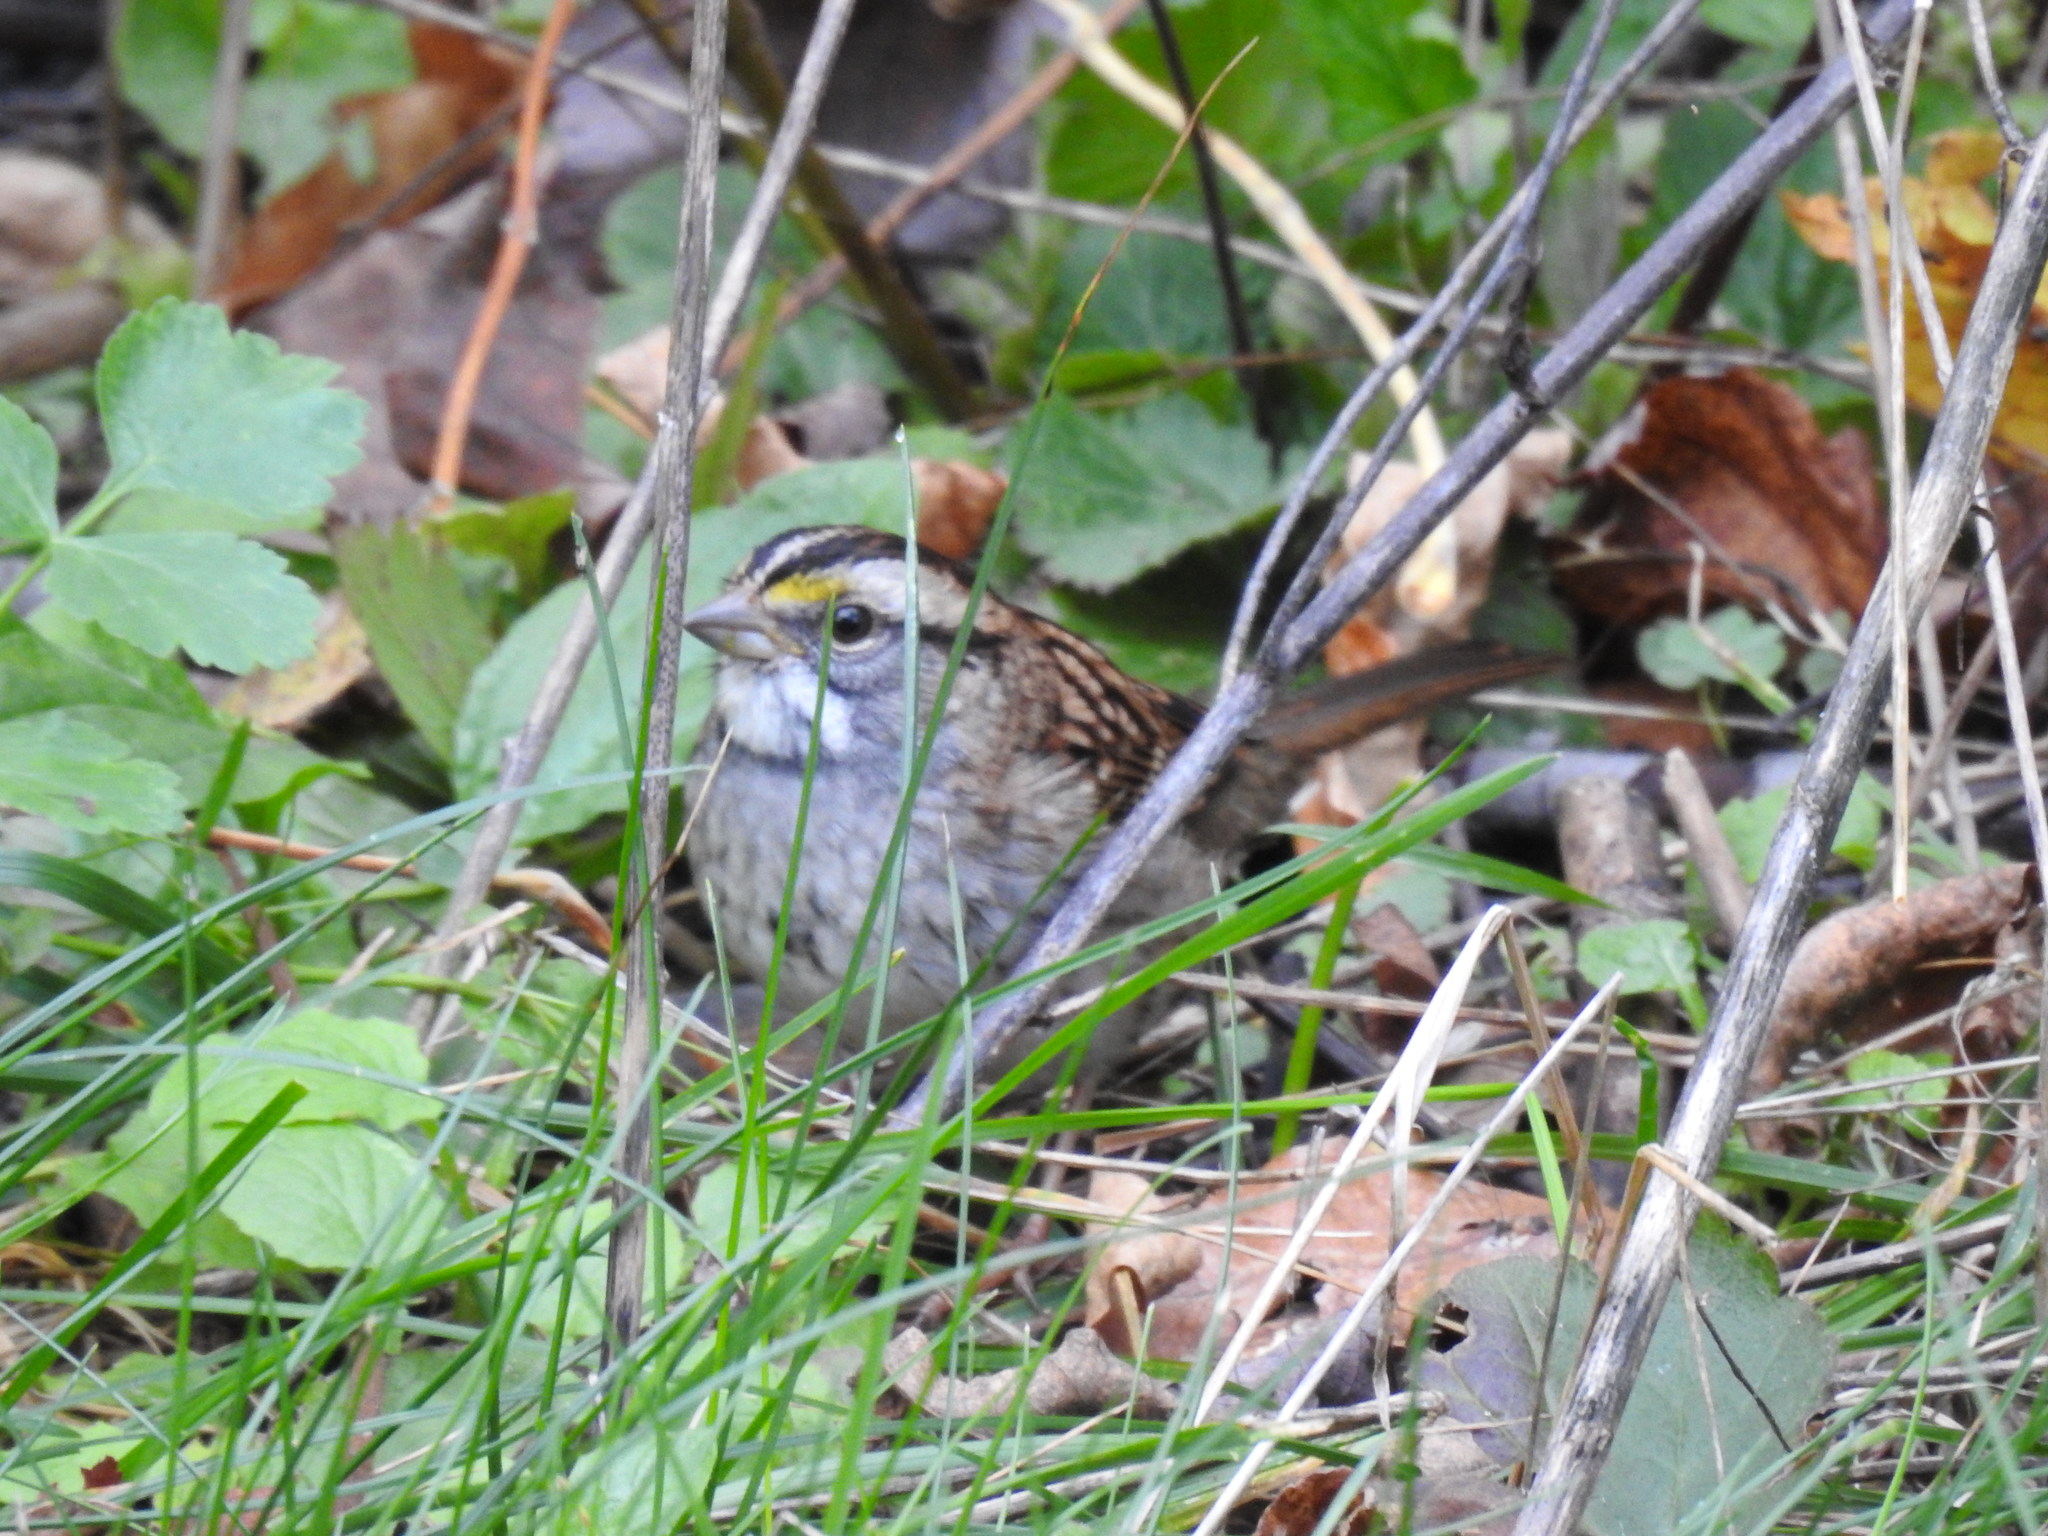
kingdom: Animalia
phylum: Chordata
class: Aves
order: Passeriformes
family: Passerellidae
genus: Zonotrichia
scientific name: Zonotrichia albicollis
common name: White-throated sparrow
